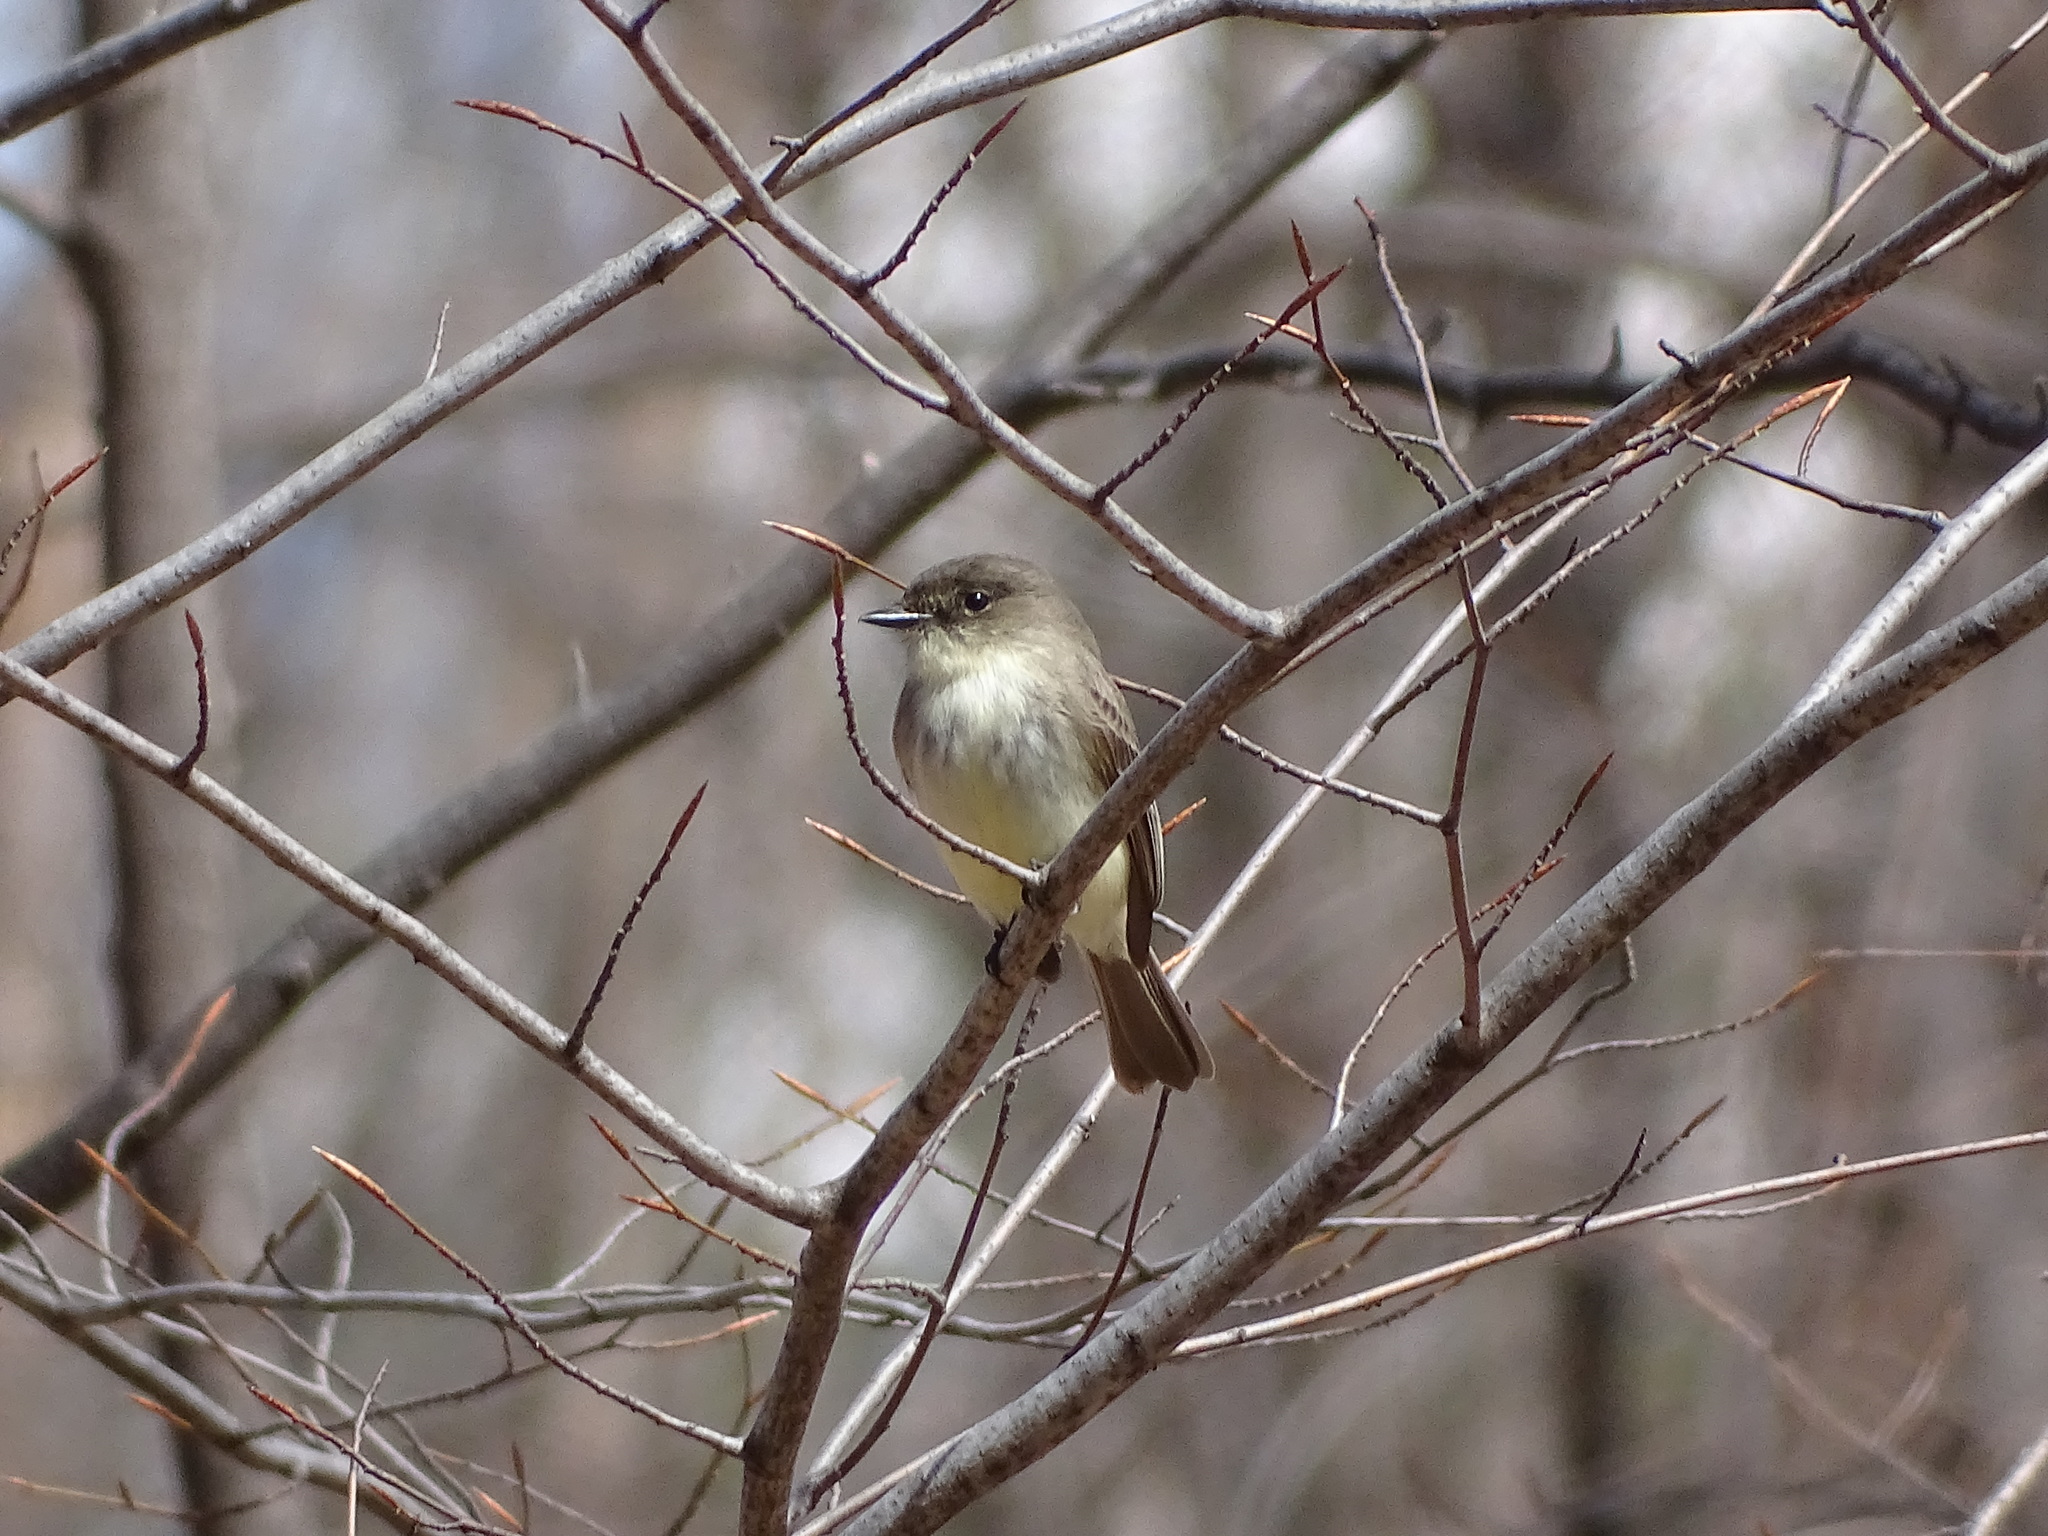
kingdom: Animalia
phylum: Chordata
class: Aves
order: Passeriformes
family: Tyrannidae
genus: Sayornis
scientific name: Sayornis phoebe
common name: Eastern phoebe
